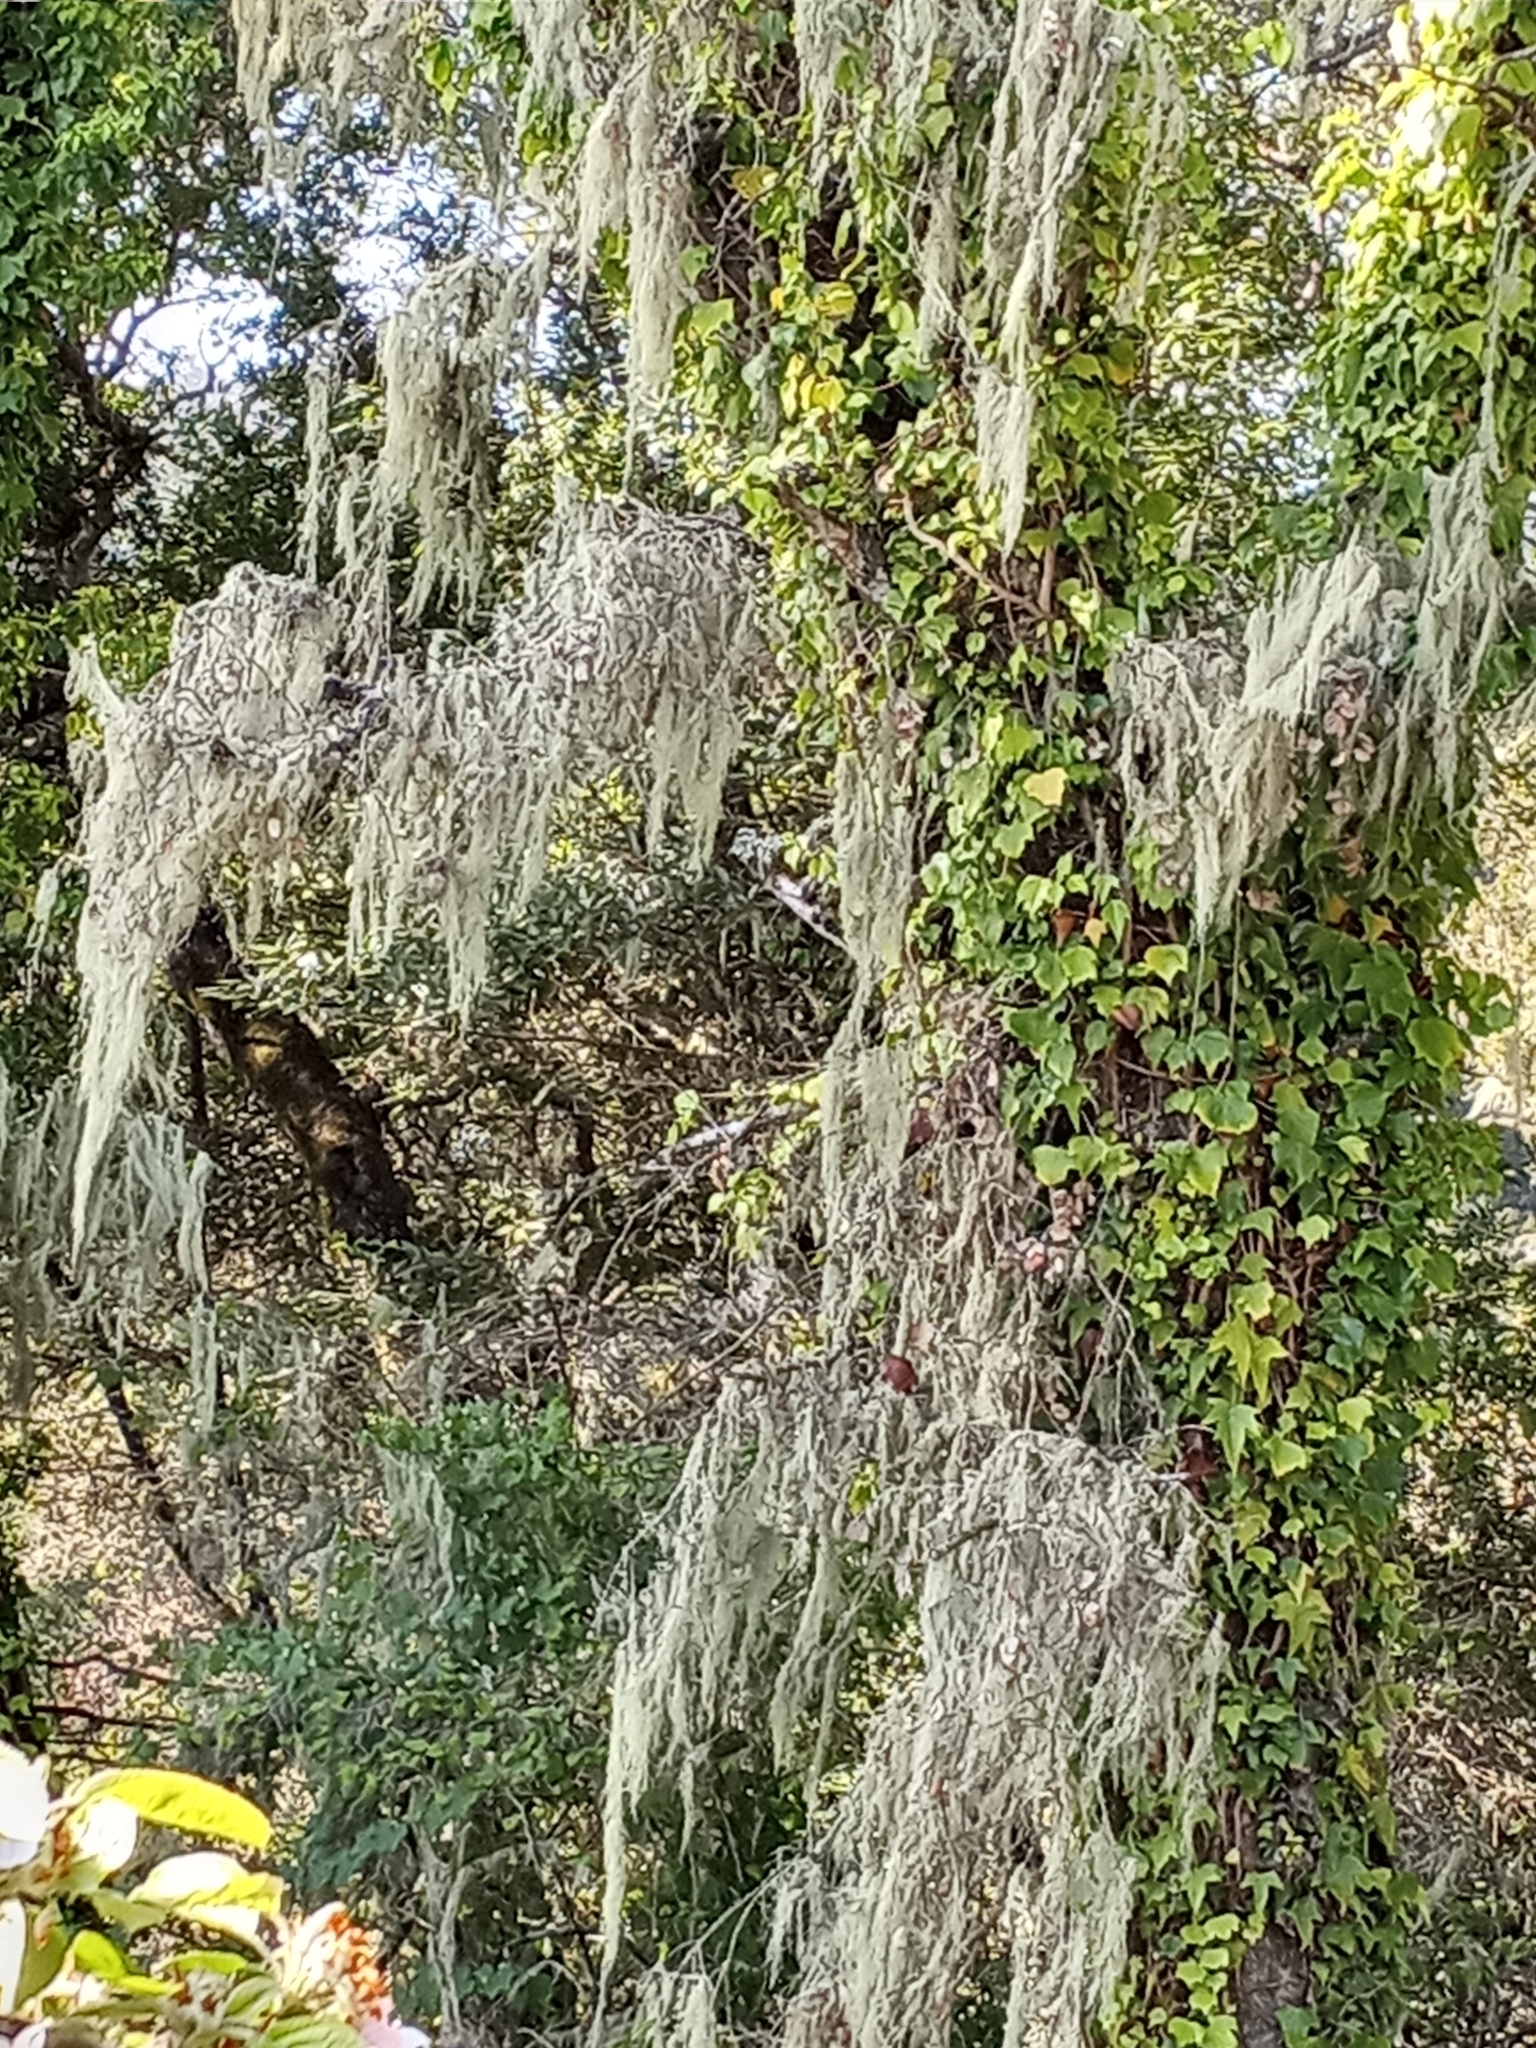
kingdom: Fungi
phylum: Ascomycota
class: Lecanoromycetes
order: Lecanorales
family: Ramalinaceae
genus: Ramalina
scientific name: Ramalina menziesii
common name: Lace lichen
